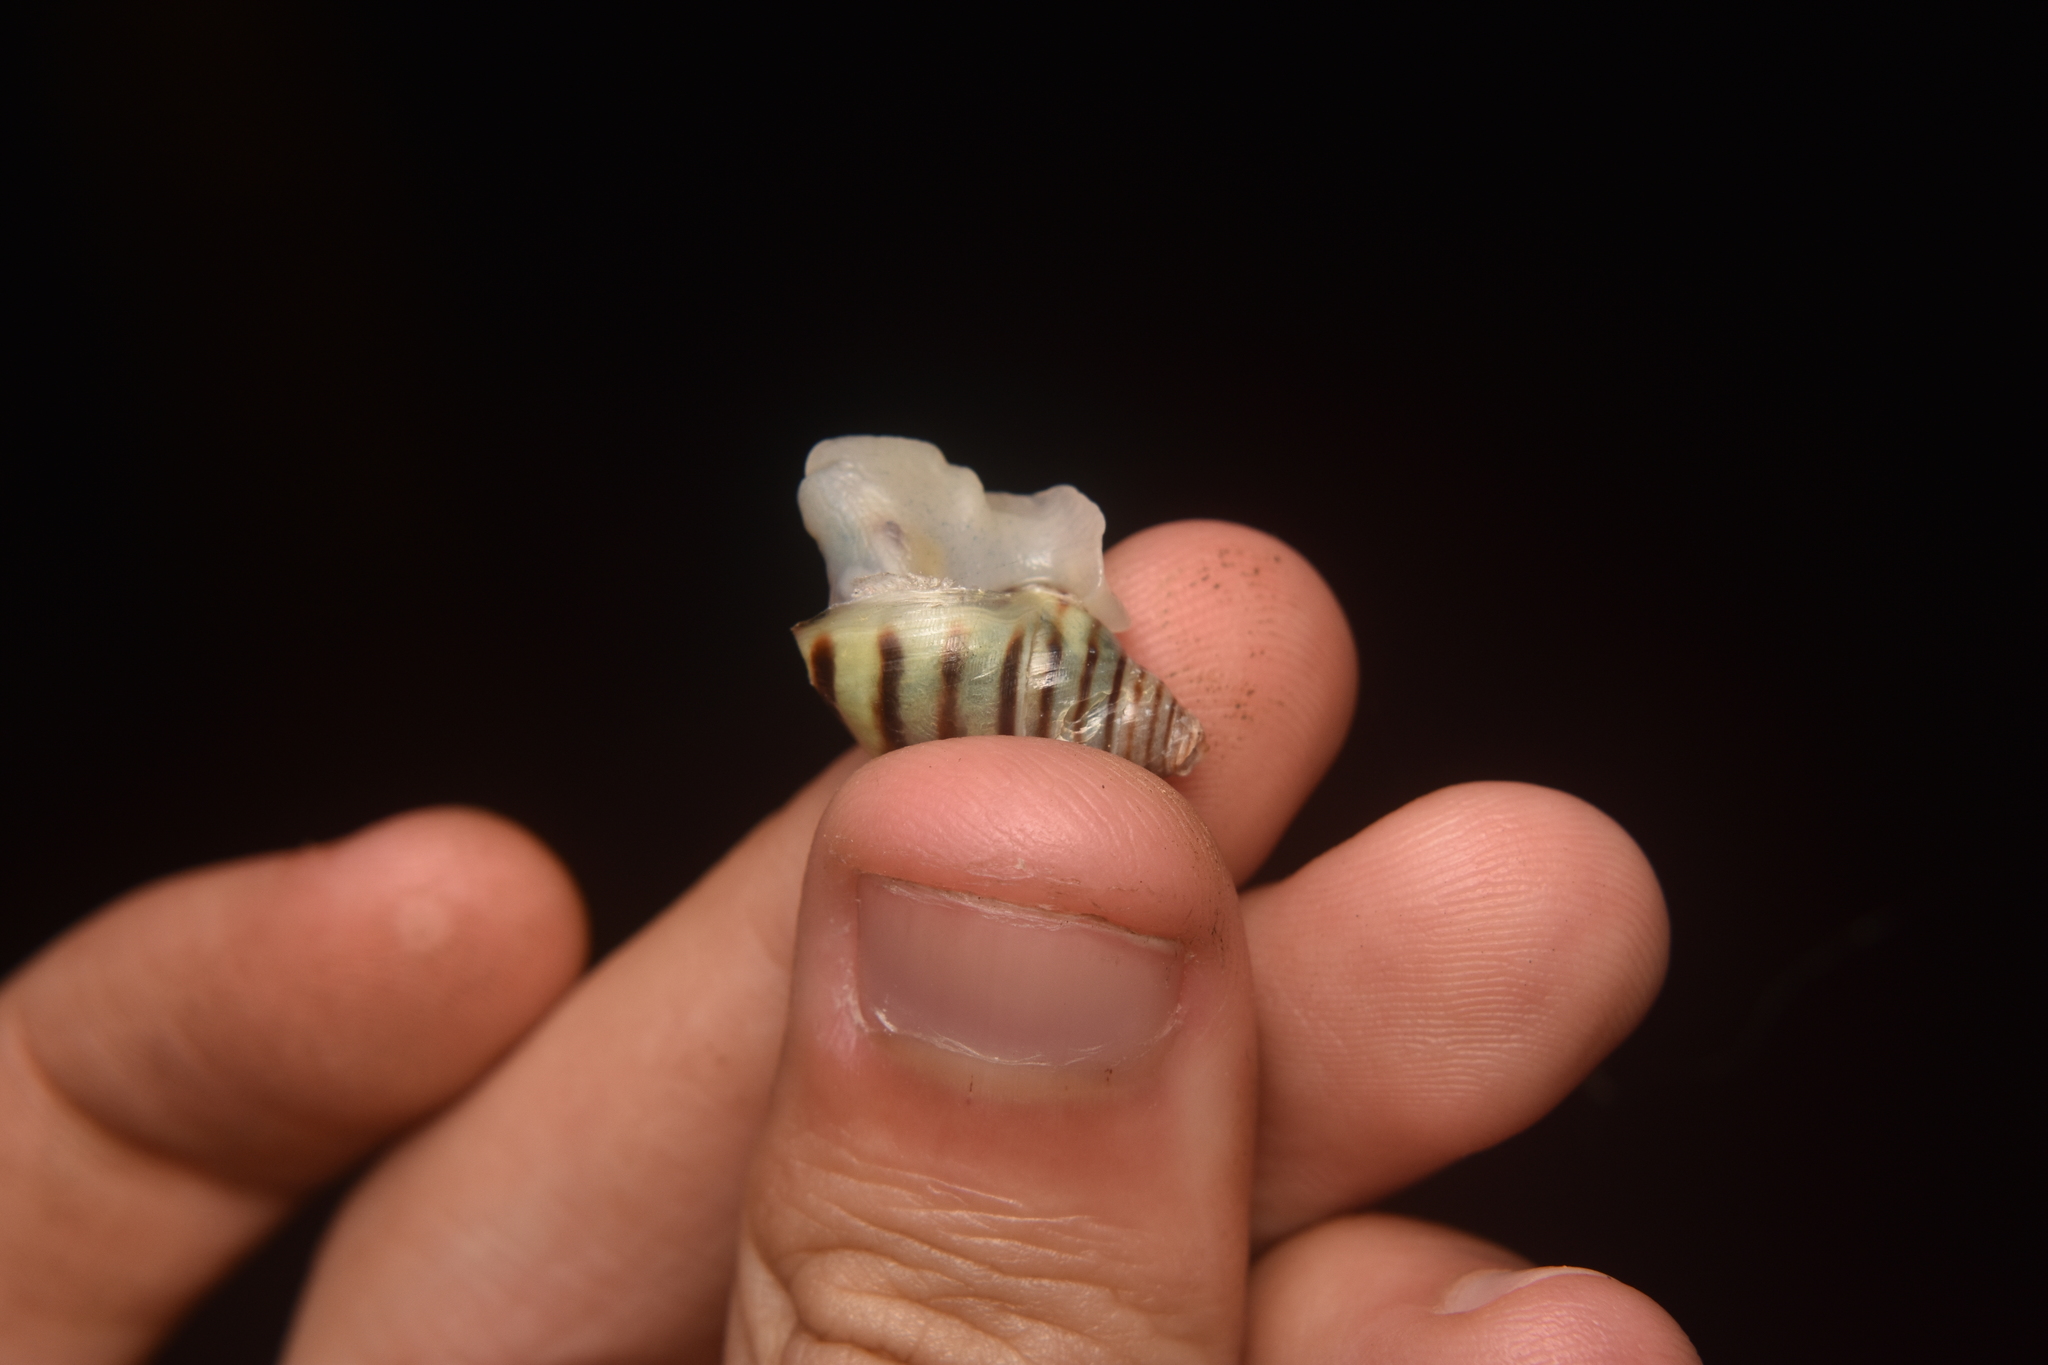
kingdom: Animalia
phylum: Mollusca
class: Gastropoda
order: Stylommatophora
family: Bulimulidae
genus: Drymaeus
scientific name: Drymaeus
